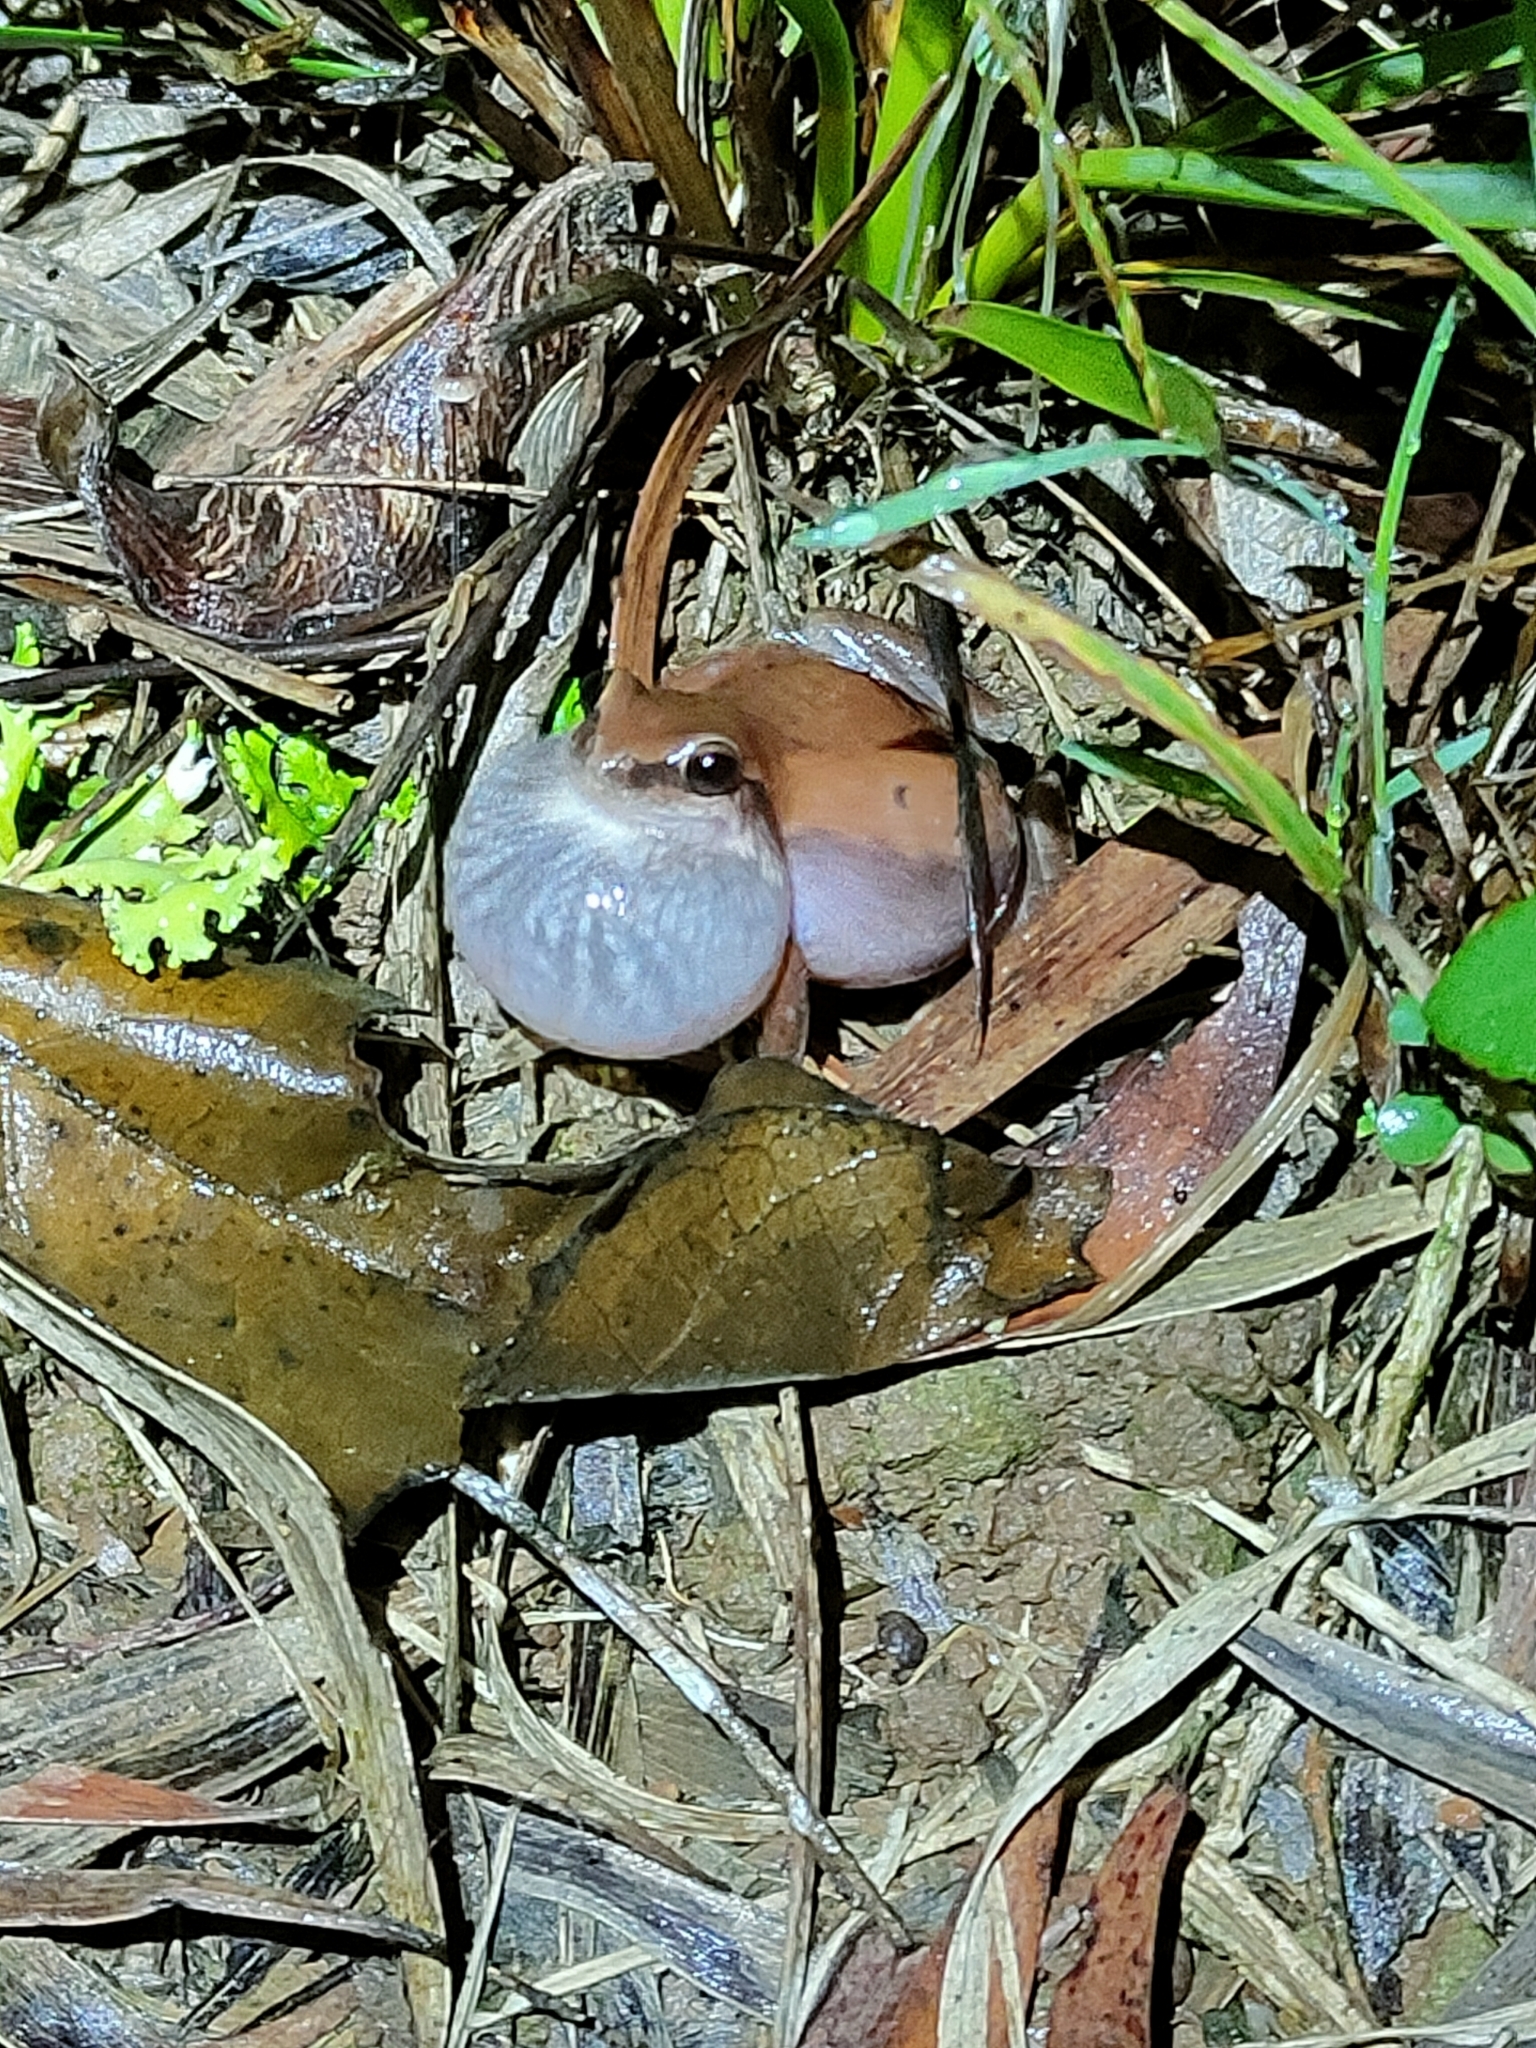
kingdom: Animalia
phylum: Chordata
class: Amphibia
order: Anura
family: Pelodryadidae
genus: Litoria
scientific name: Litoria rubella
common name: Desert tree frog
